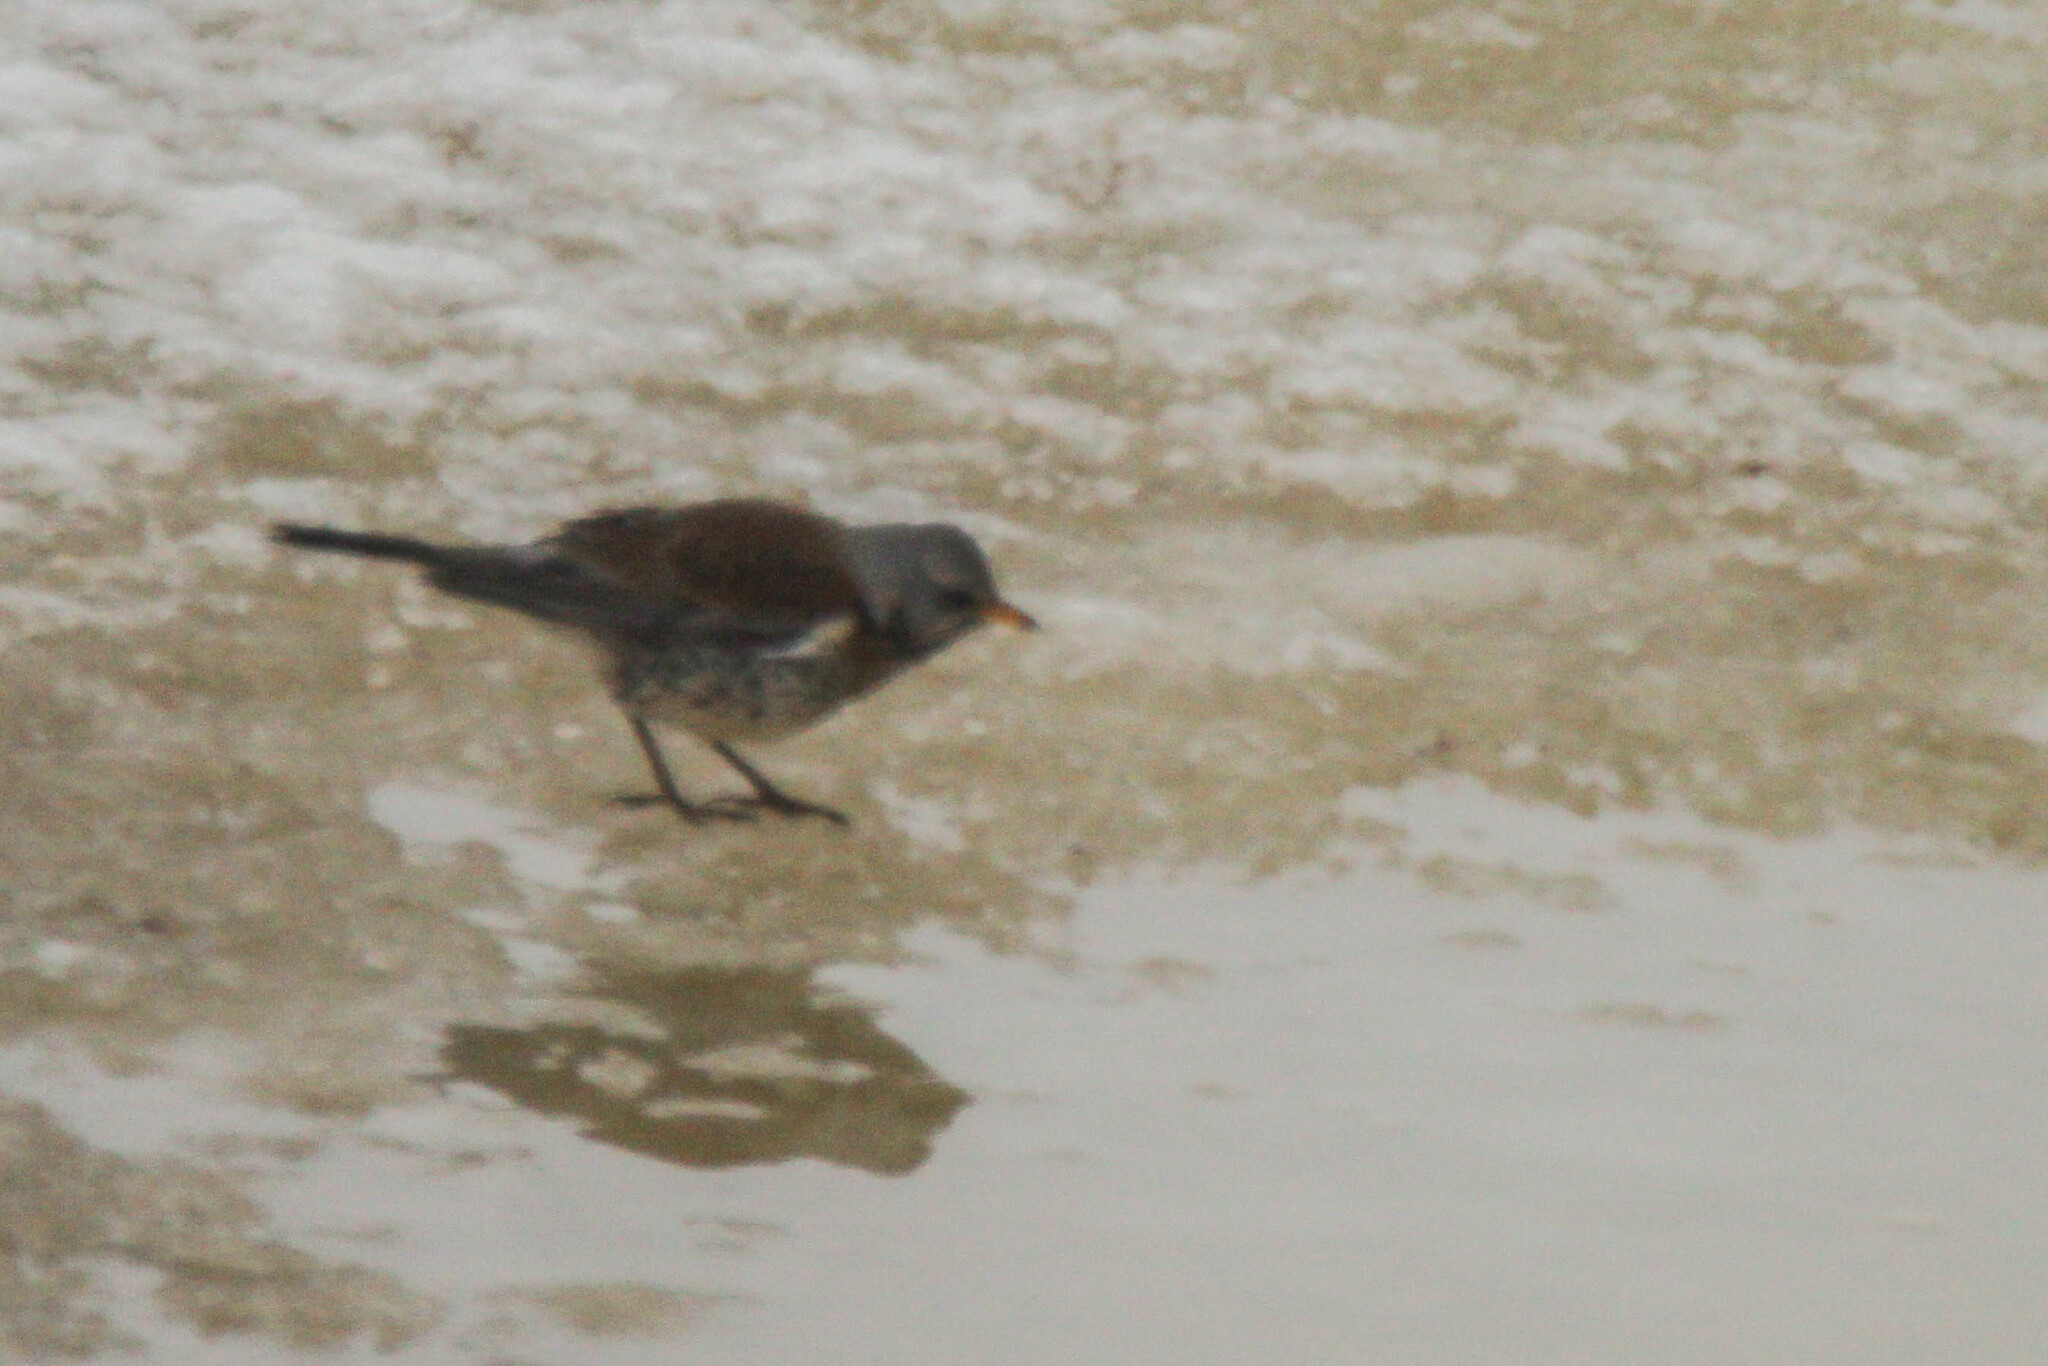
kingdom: Animalia
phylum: Chordata
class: Aves
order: Passeriformes
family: Turdidae
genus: Turdus
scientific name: Turdus pilaris
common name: Fieldfare
